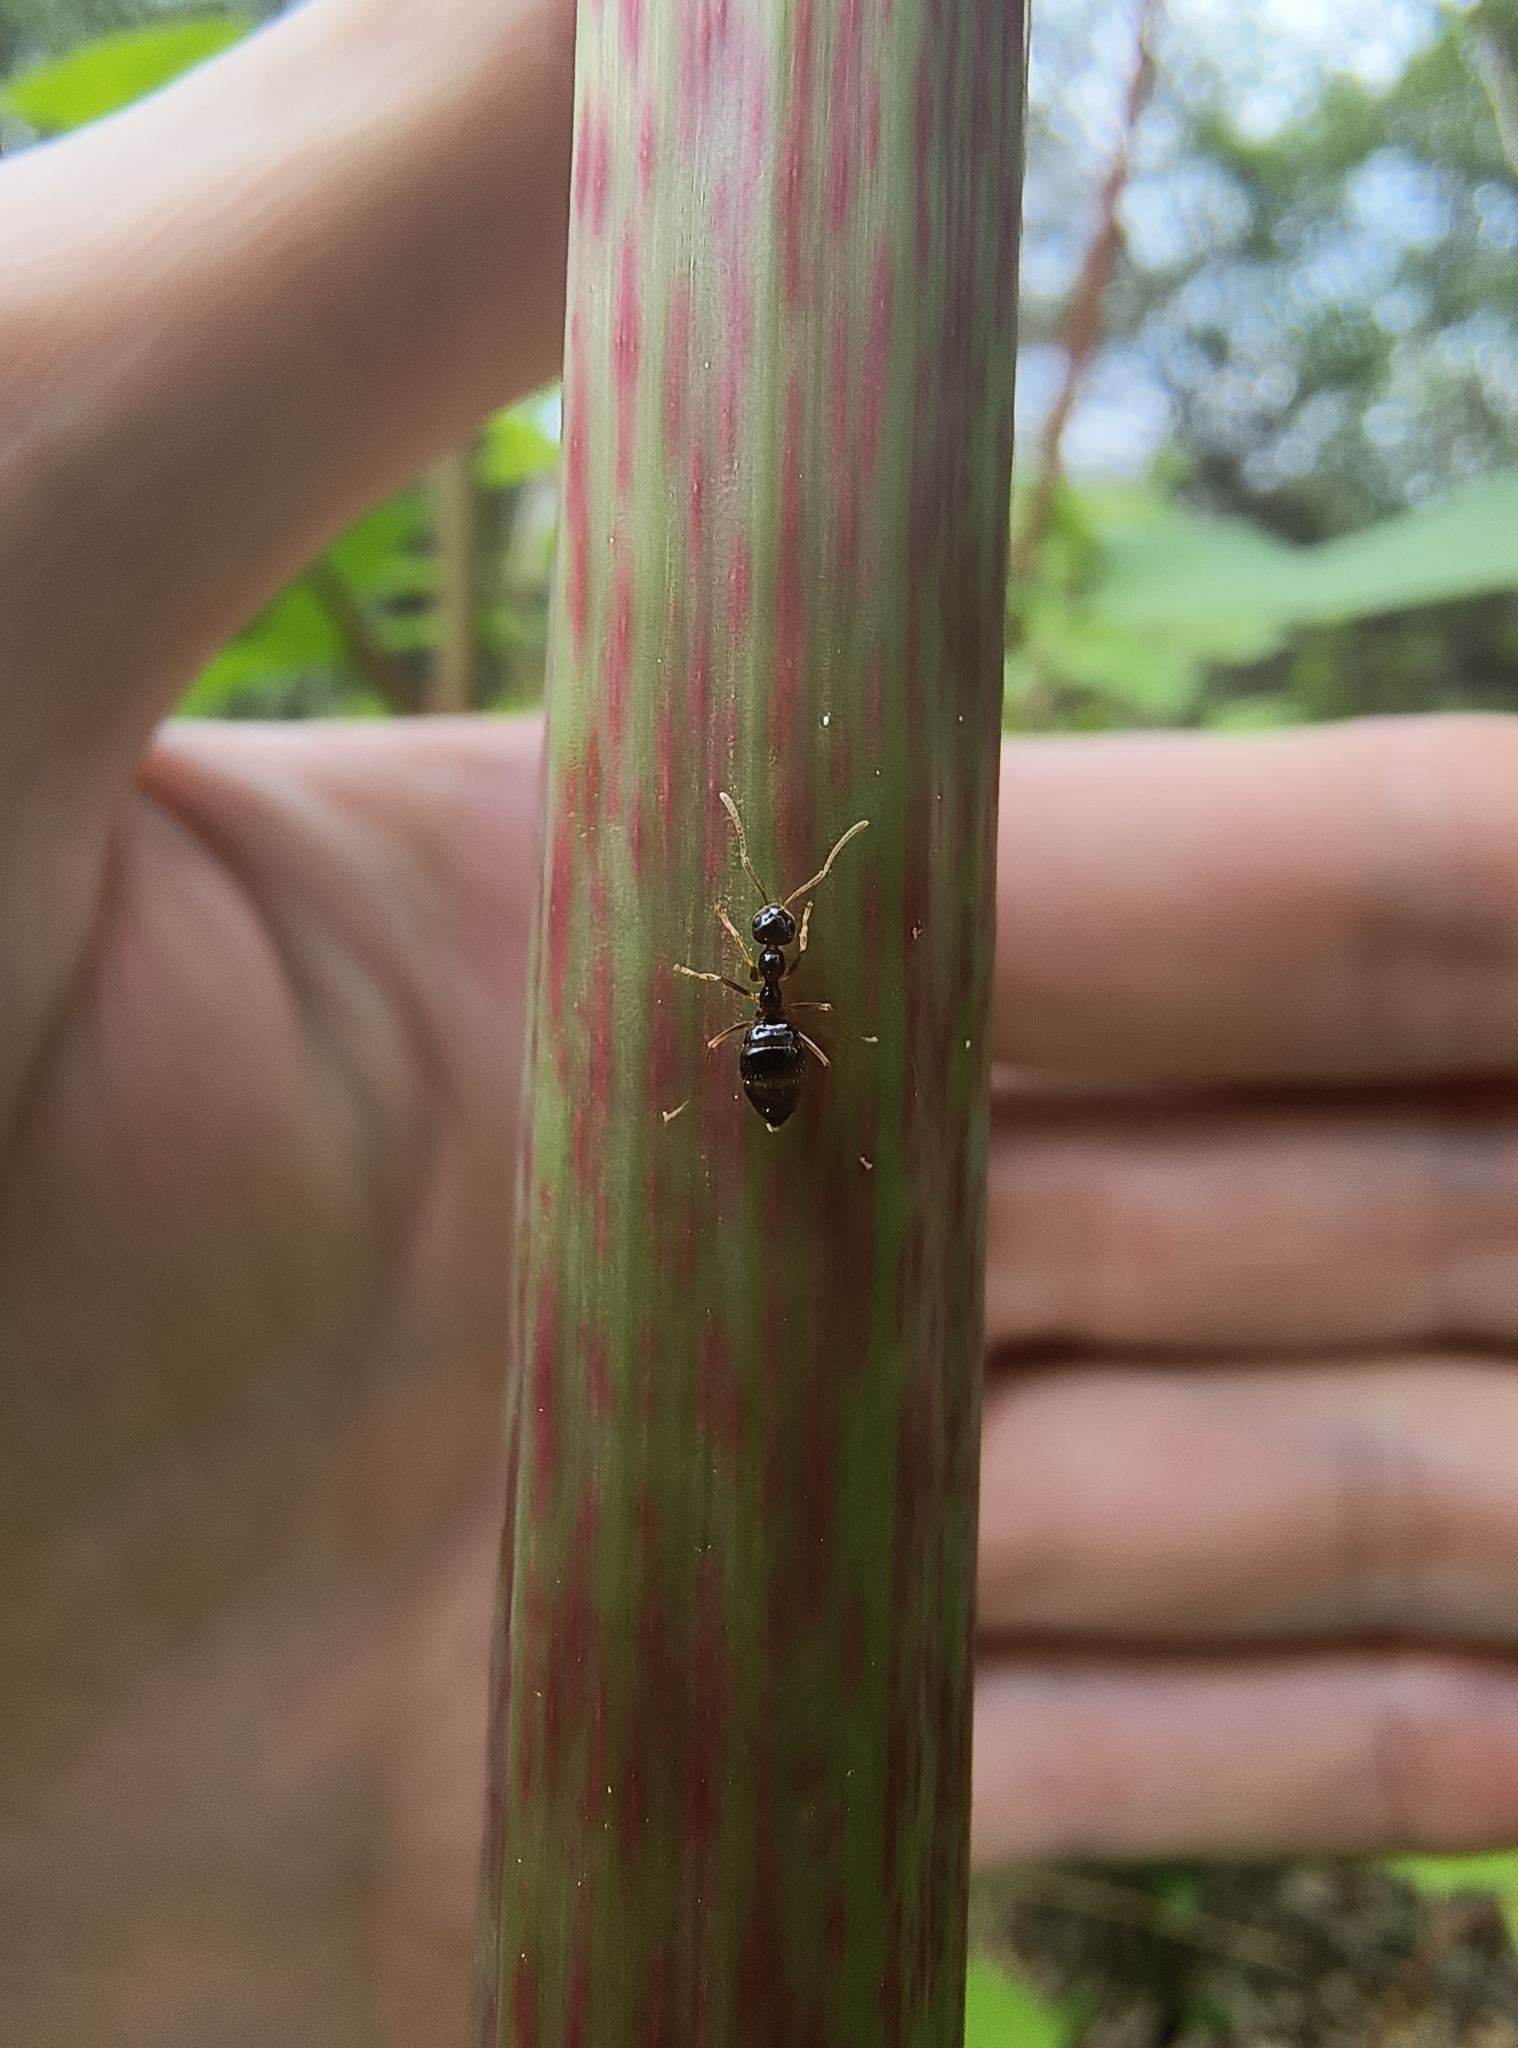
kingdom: Animalia
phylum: Arthropoda
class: Insecta
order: Hymenoptera
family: Formicidae
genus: Prenolepis
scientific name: Prenolepis imparis
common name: Small honey ant
